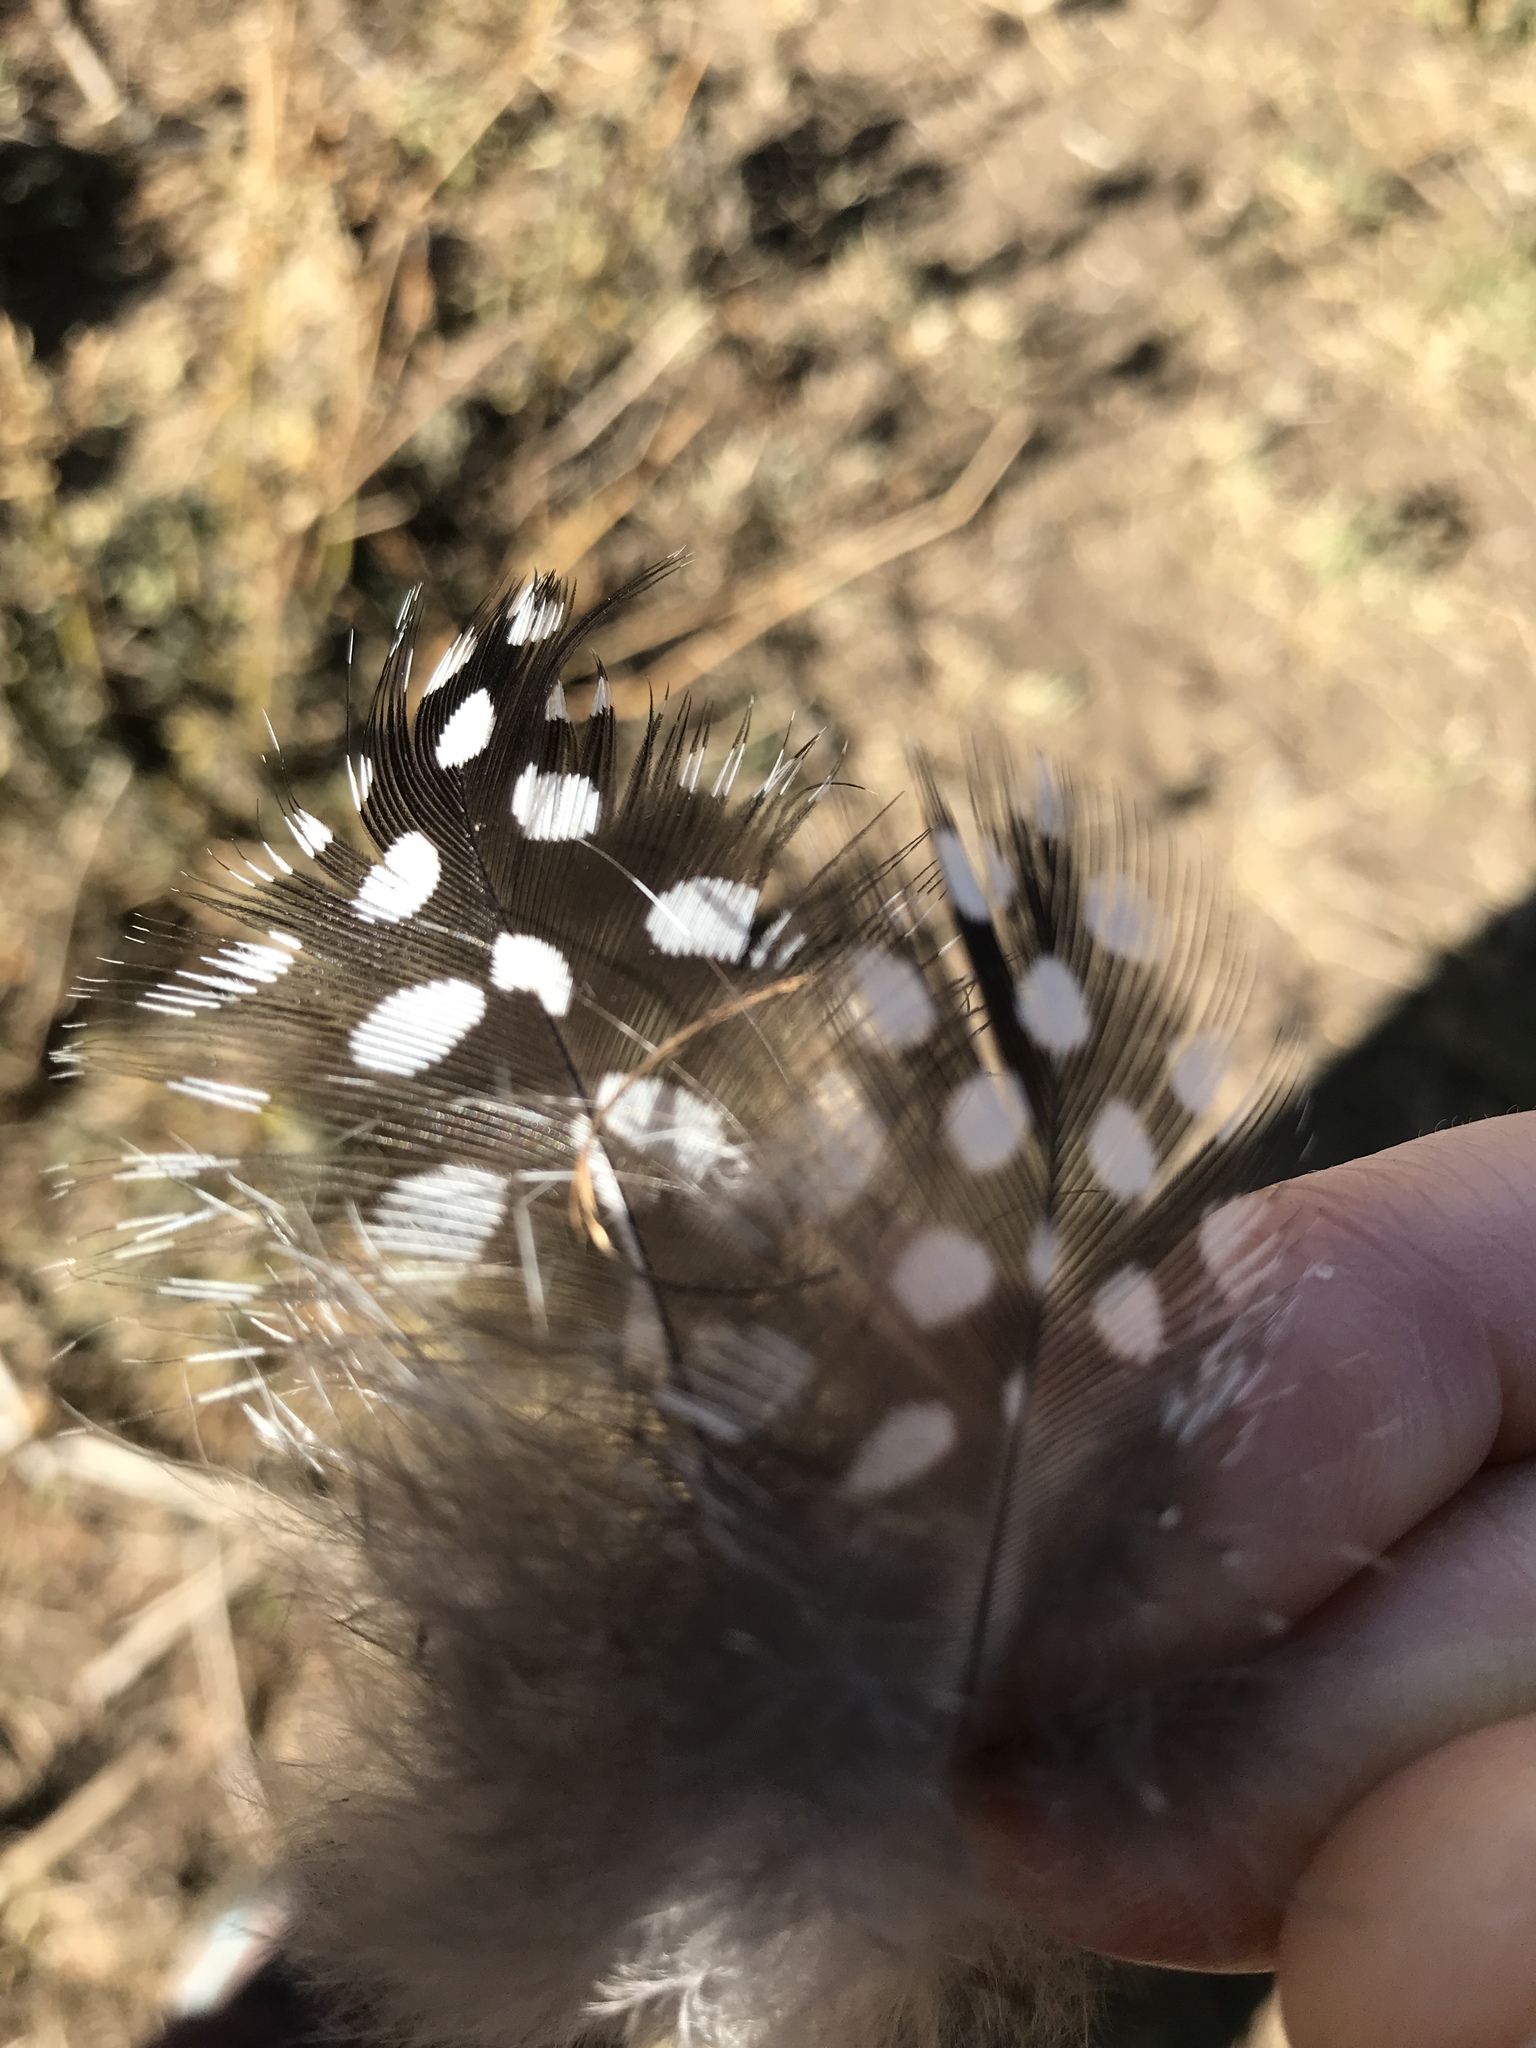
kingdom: Animalia
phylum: Chordata
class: Aves
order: Galliformes
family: Numididae
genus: Numida
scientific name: Numida meleagris
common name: Helmeted guineafowl
